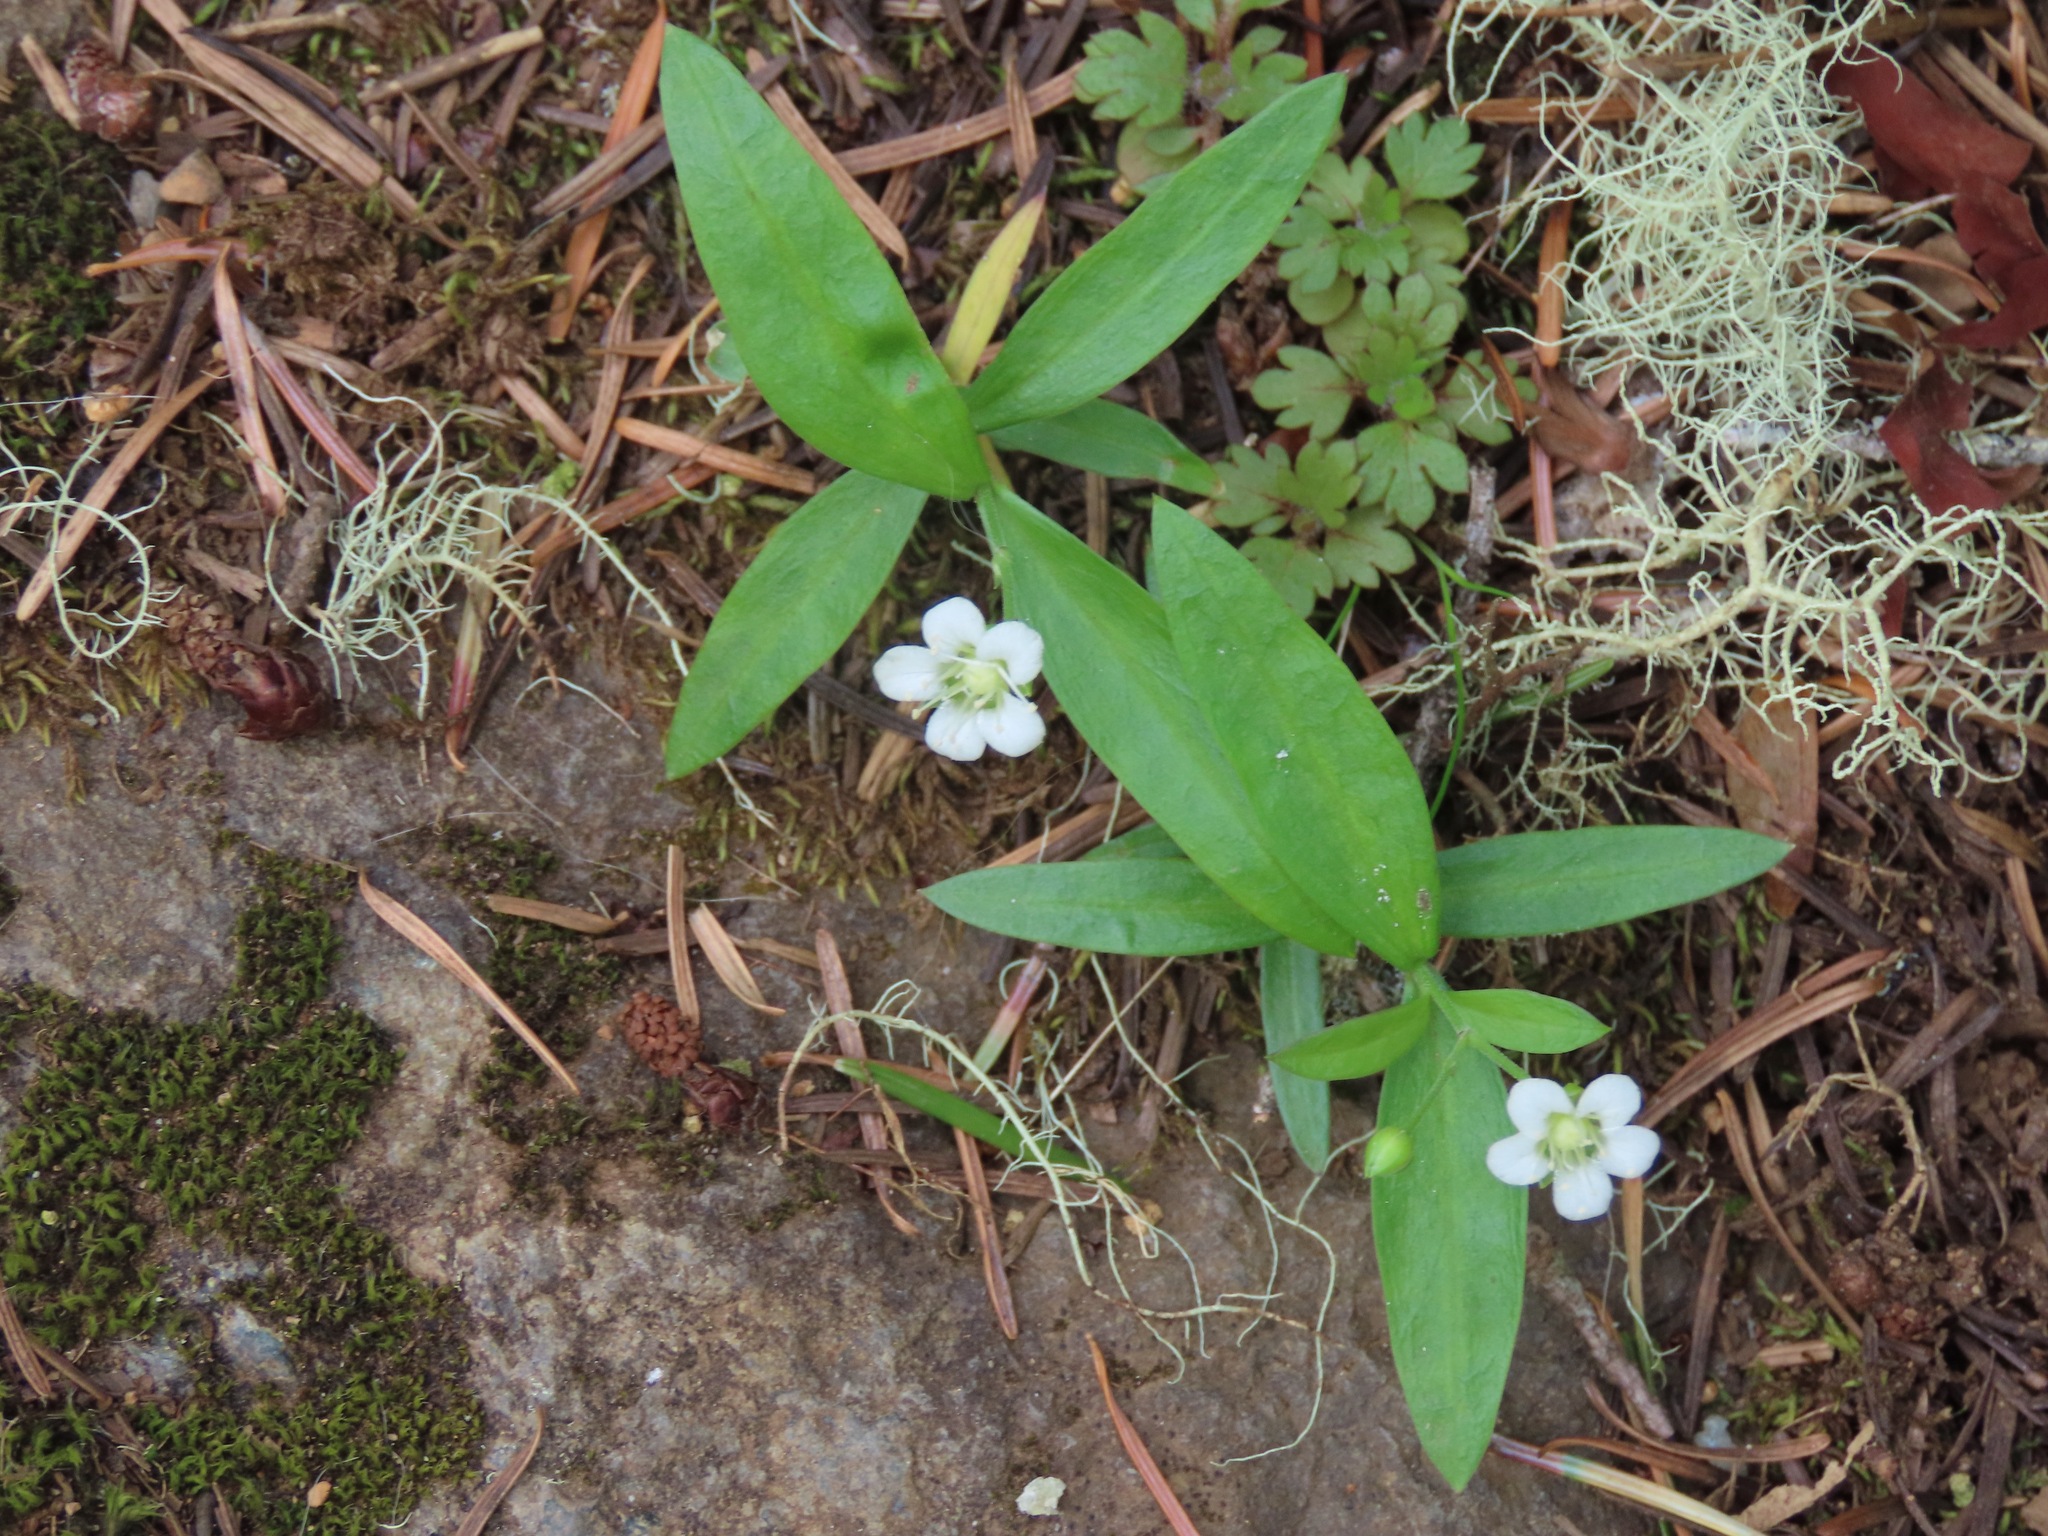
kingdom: Plantae
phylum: Tracheophyta
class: Magnoliopsida
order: Caryophyllales
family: Caryophyllaceae
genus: Moehringia
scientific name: Moehringia macrophylla
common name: Big-leaf sandwort
